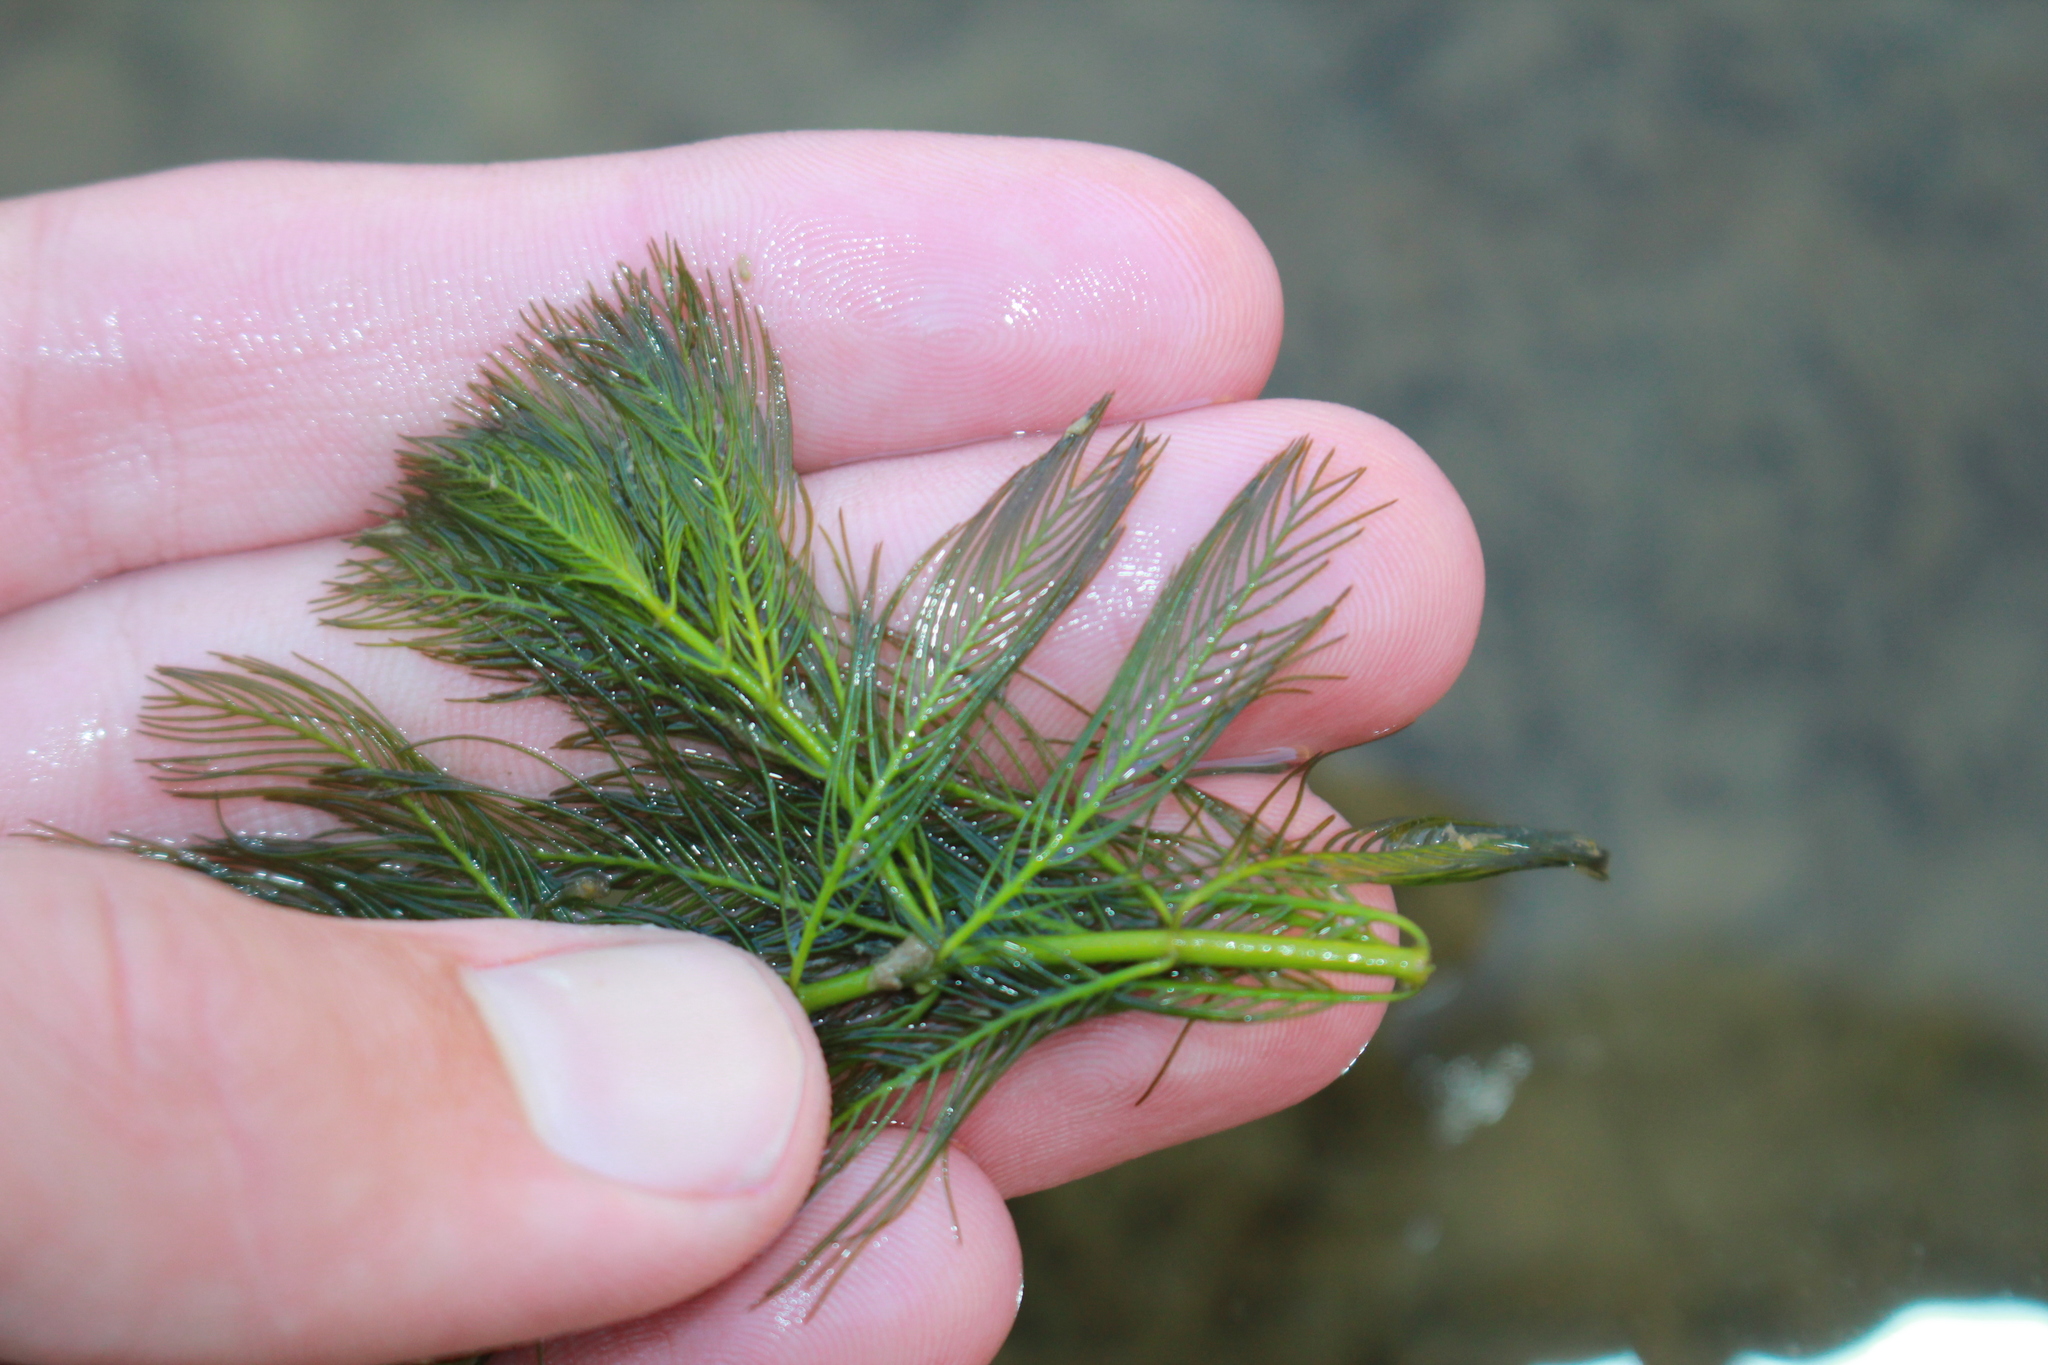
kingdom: Plantae
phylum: Tracheophyta
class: Magnoliopsida
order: Saxifragales
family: Haloragaceae
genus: Myriophyllum
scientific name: Myriophyllum spicatum
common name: Spiked water-milfoil
